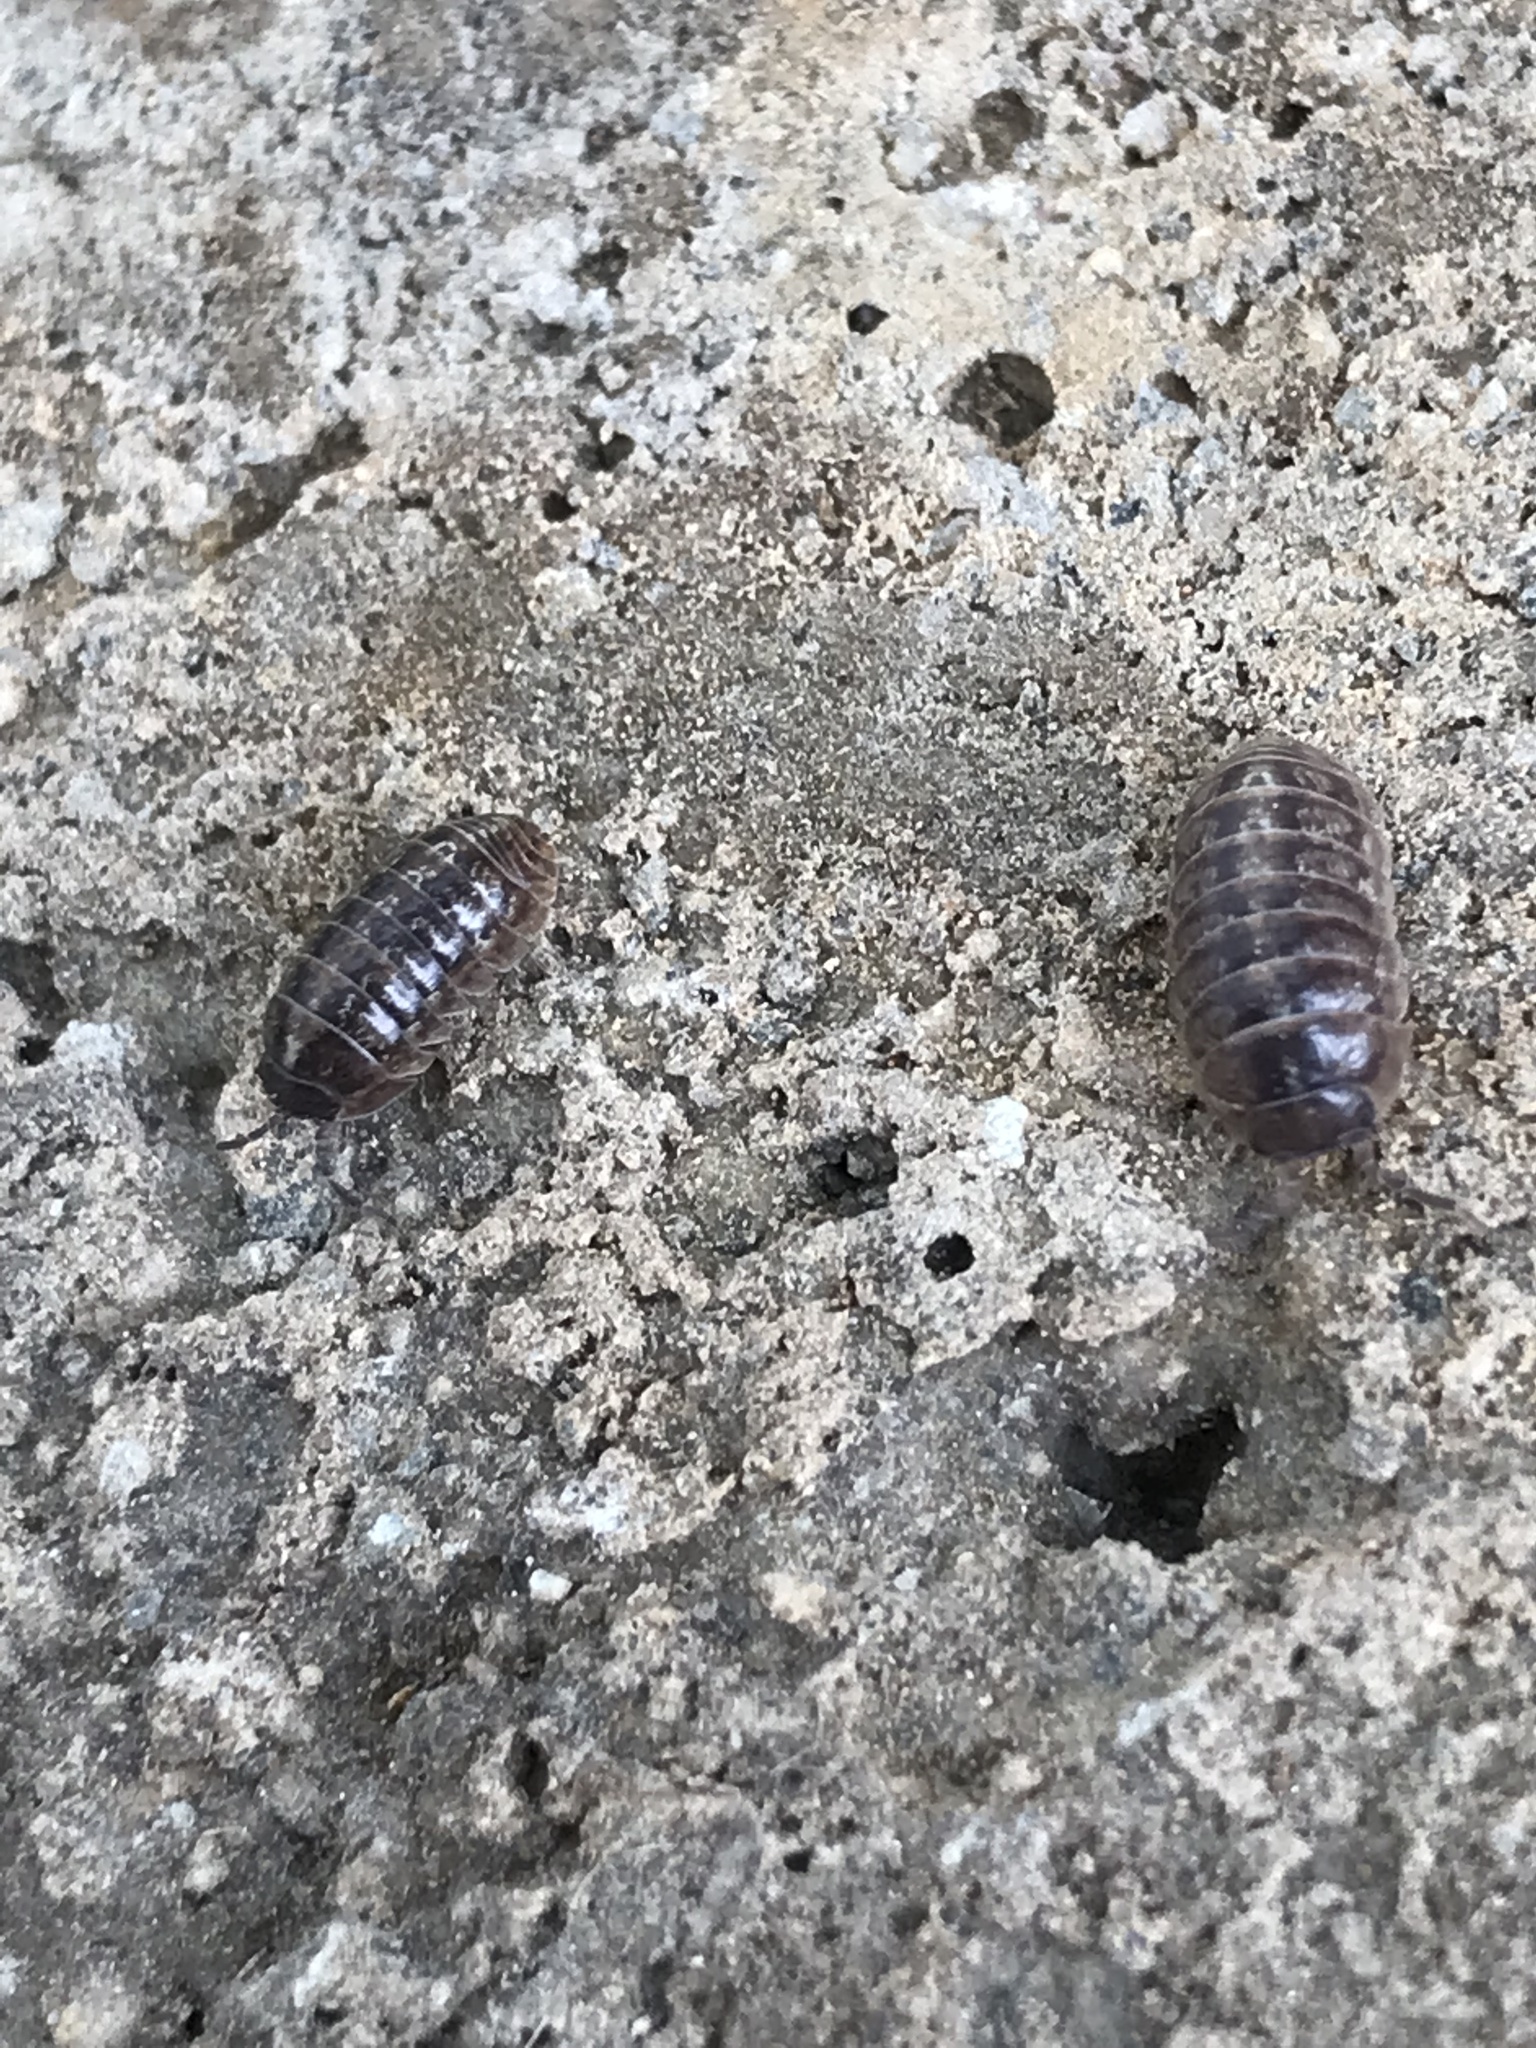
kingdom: Animalia
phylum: Arthropoda
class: Malacostraca
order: Isopoda
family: Armadillidiidae
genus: Armadillidium
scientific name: Armadillidium vulgare
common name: Common pill woodlouse
